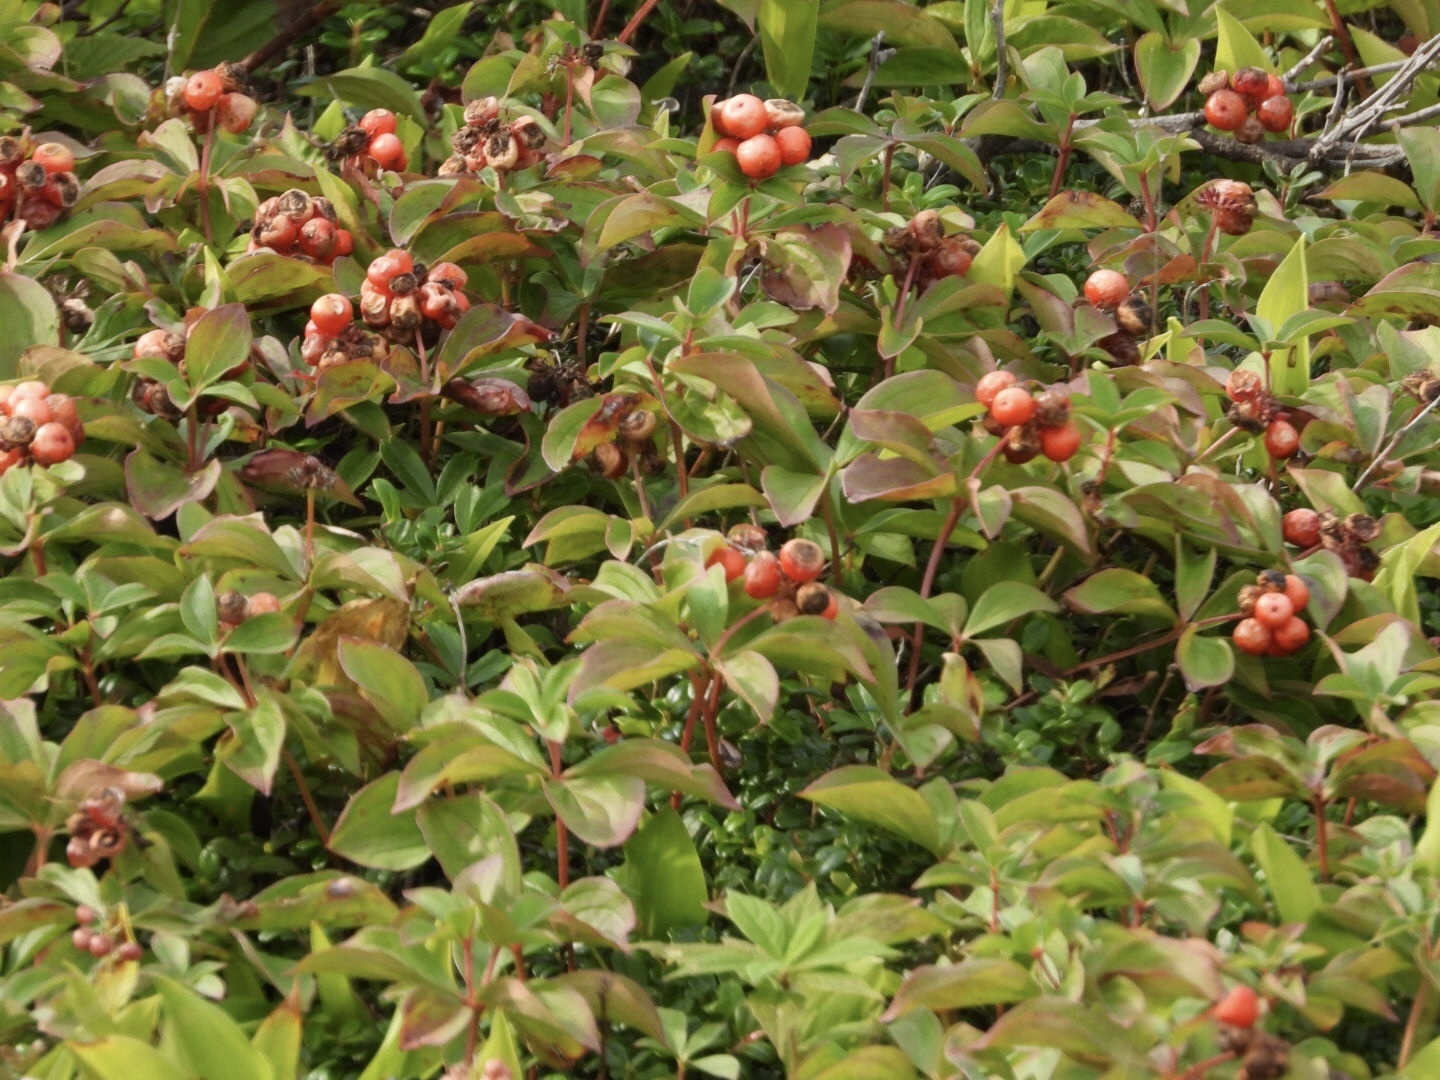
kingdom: Plantae
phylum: Tracheophyta
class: Magnoliopsida
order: Cornales
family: Cornaceae
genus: Cornus
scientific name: Cornus canadensis
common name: Creeping dogwood
